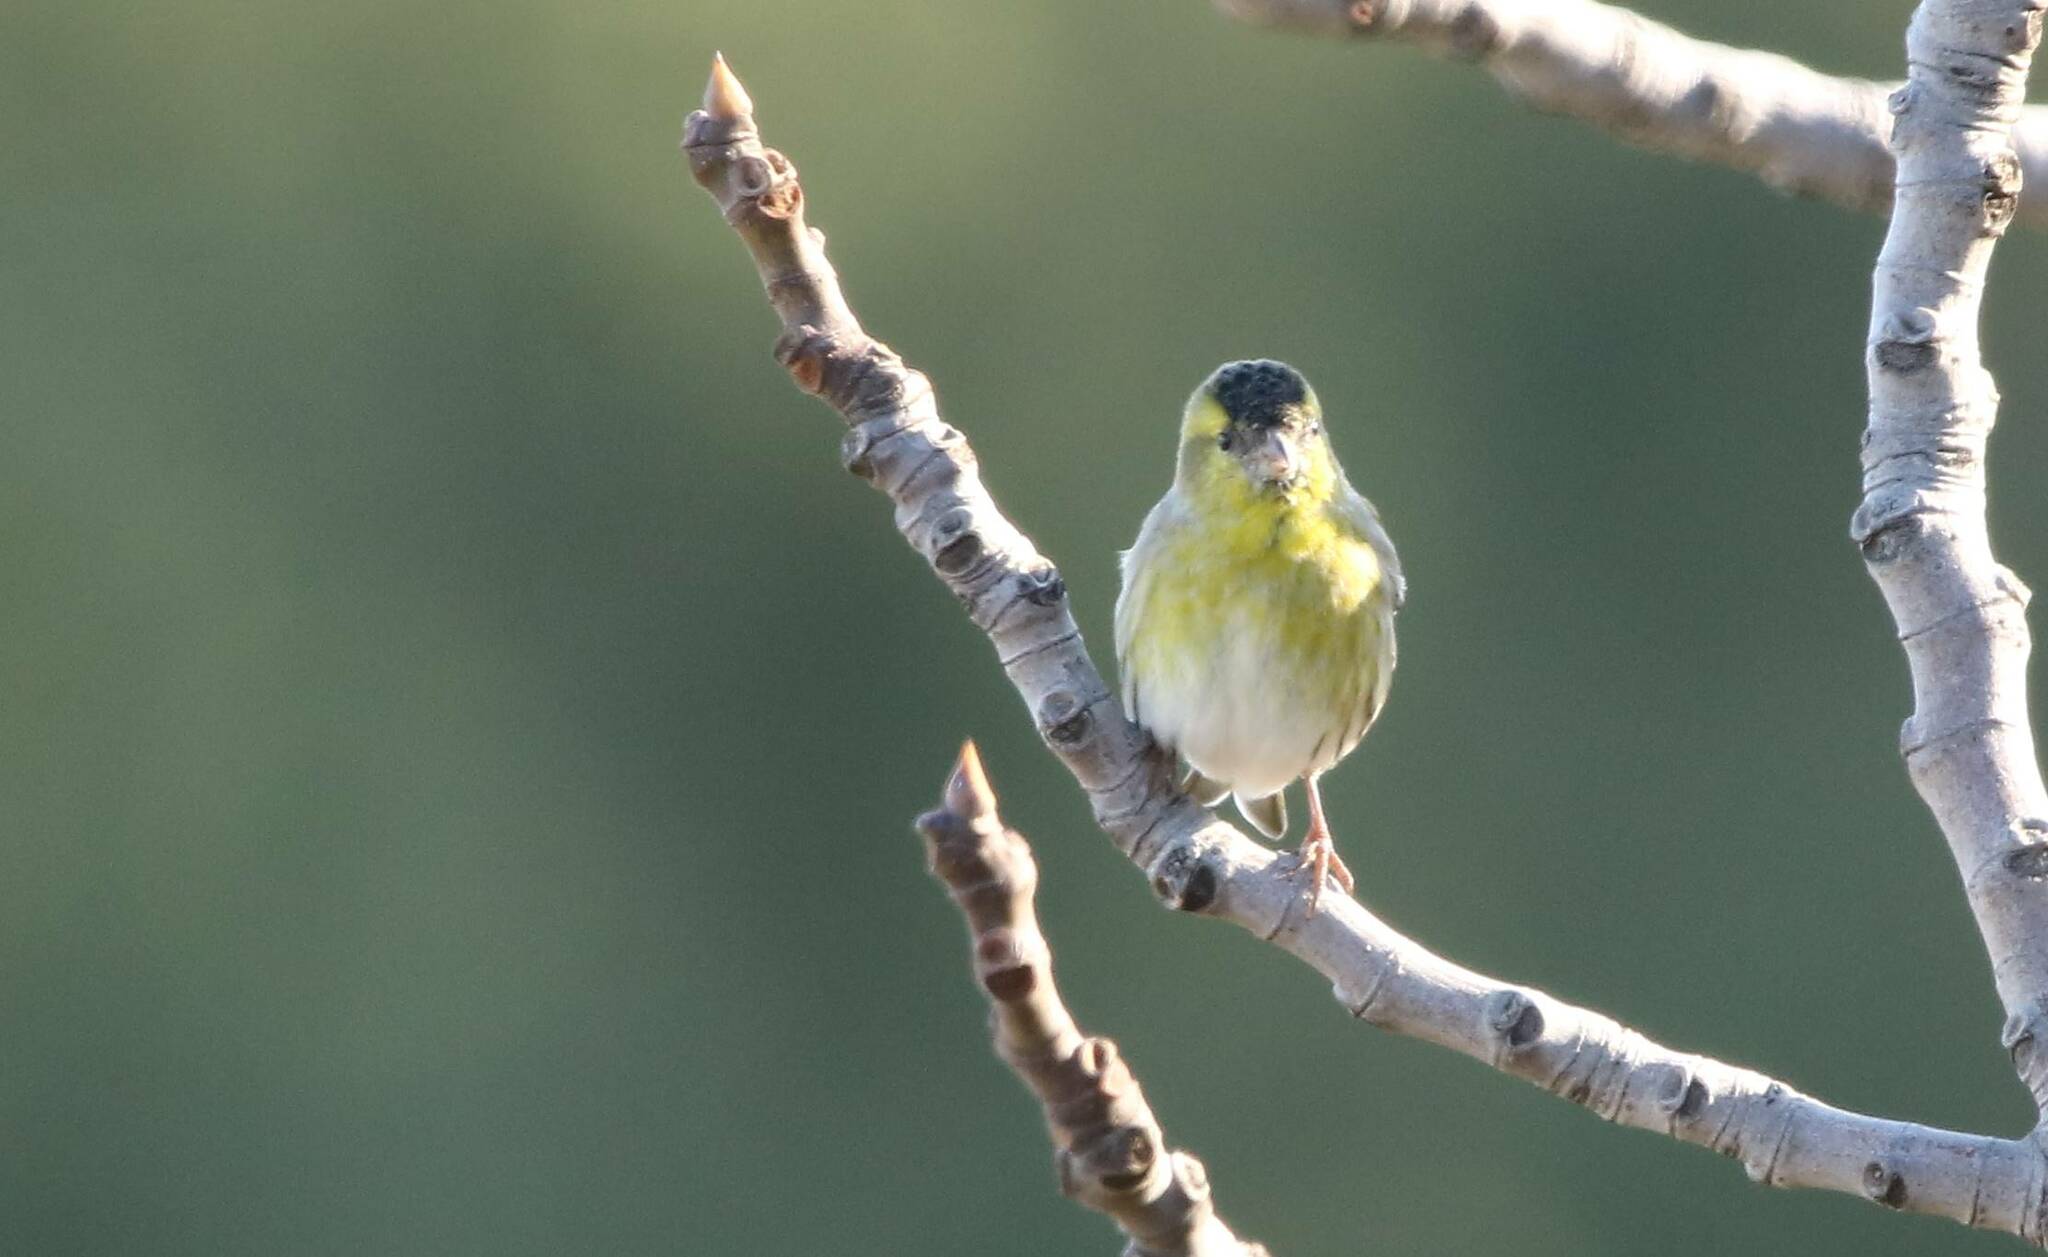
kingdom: Animalia
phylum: Chordata
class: Aves
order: Passeriformes
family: Fringillidae
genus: Spinus
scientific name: Spinus spinus
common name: Eurasian siskin
